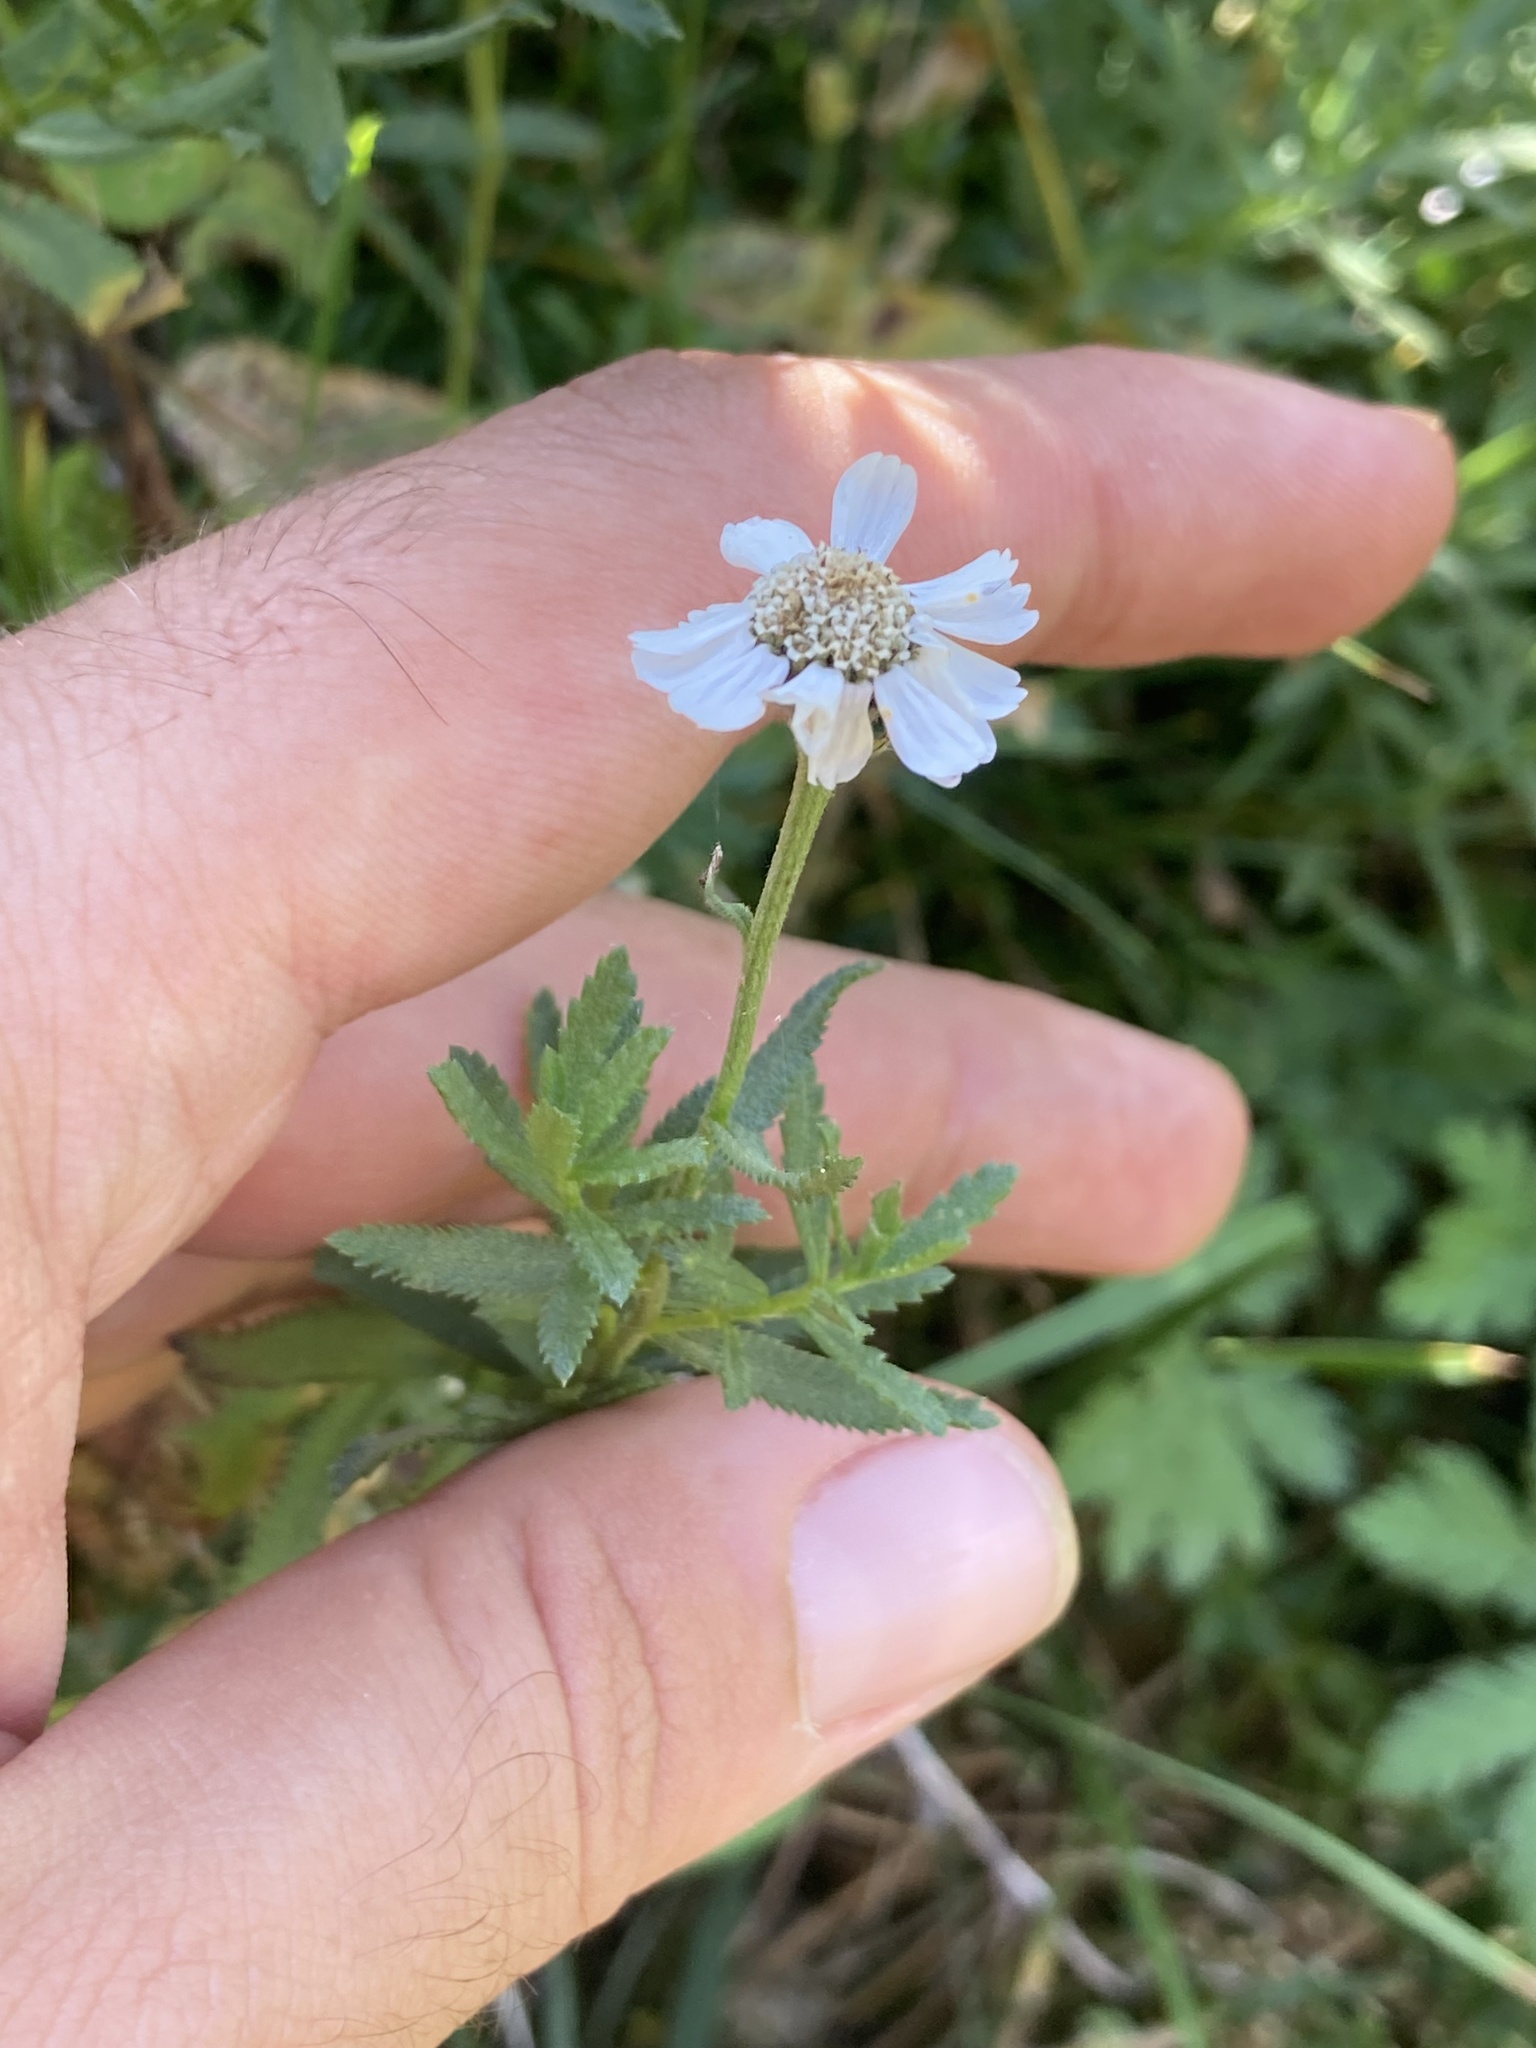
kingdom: Plantae
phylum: Tracheophyta
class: Magnoliopsida
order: Asterales
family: Asteraceae
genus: Achillea
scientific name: Achillea pyrenaica
